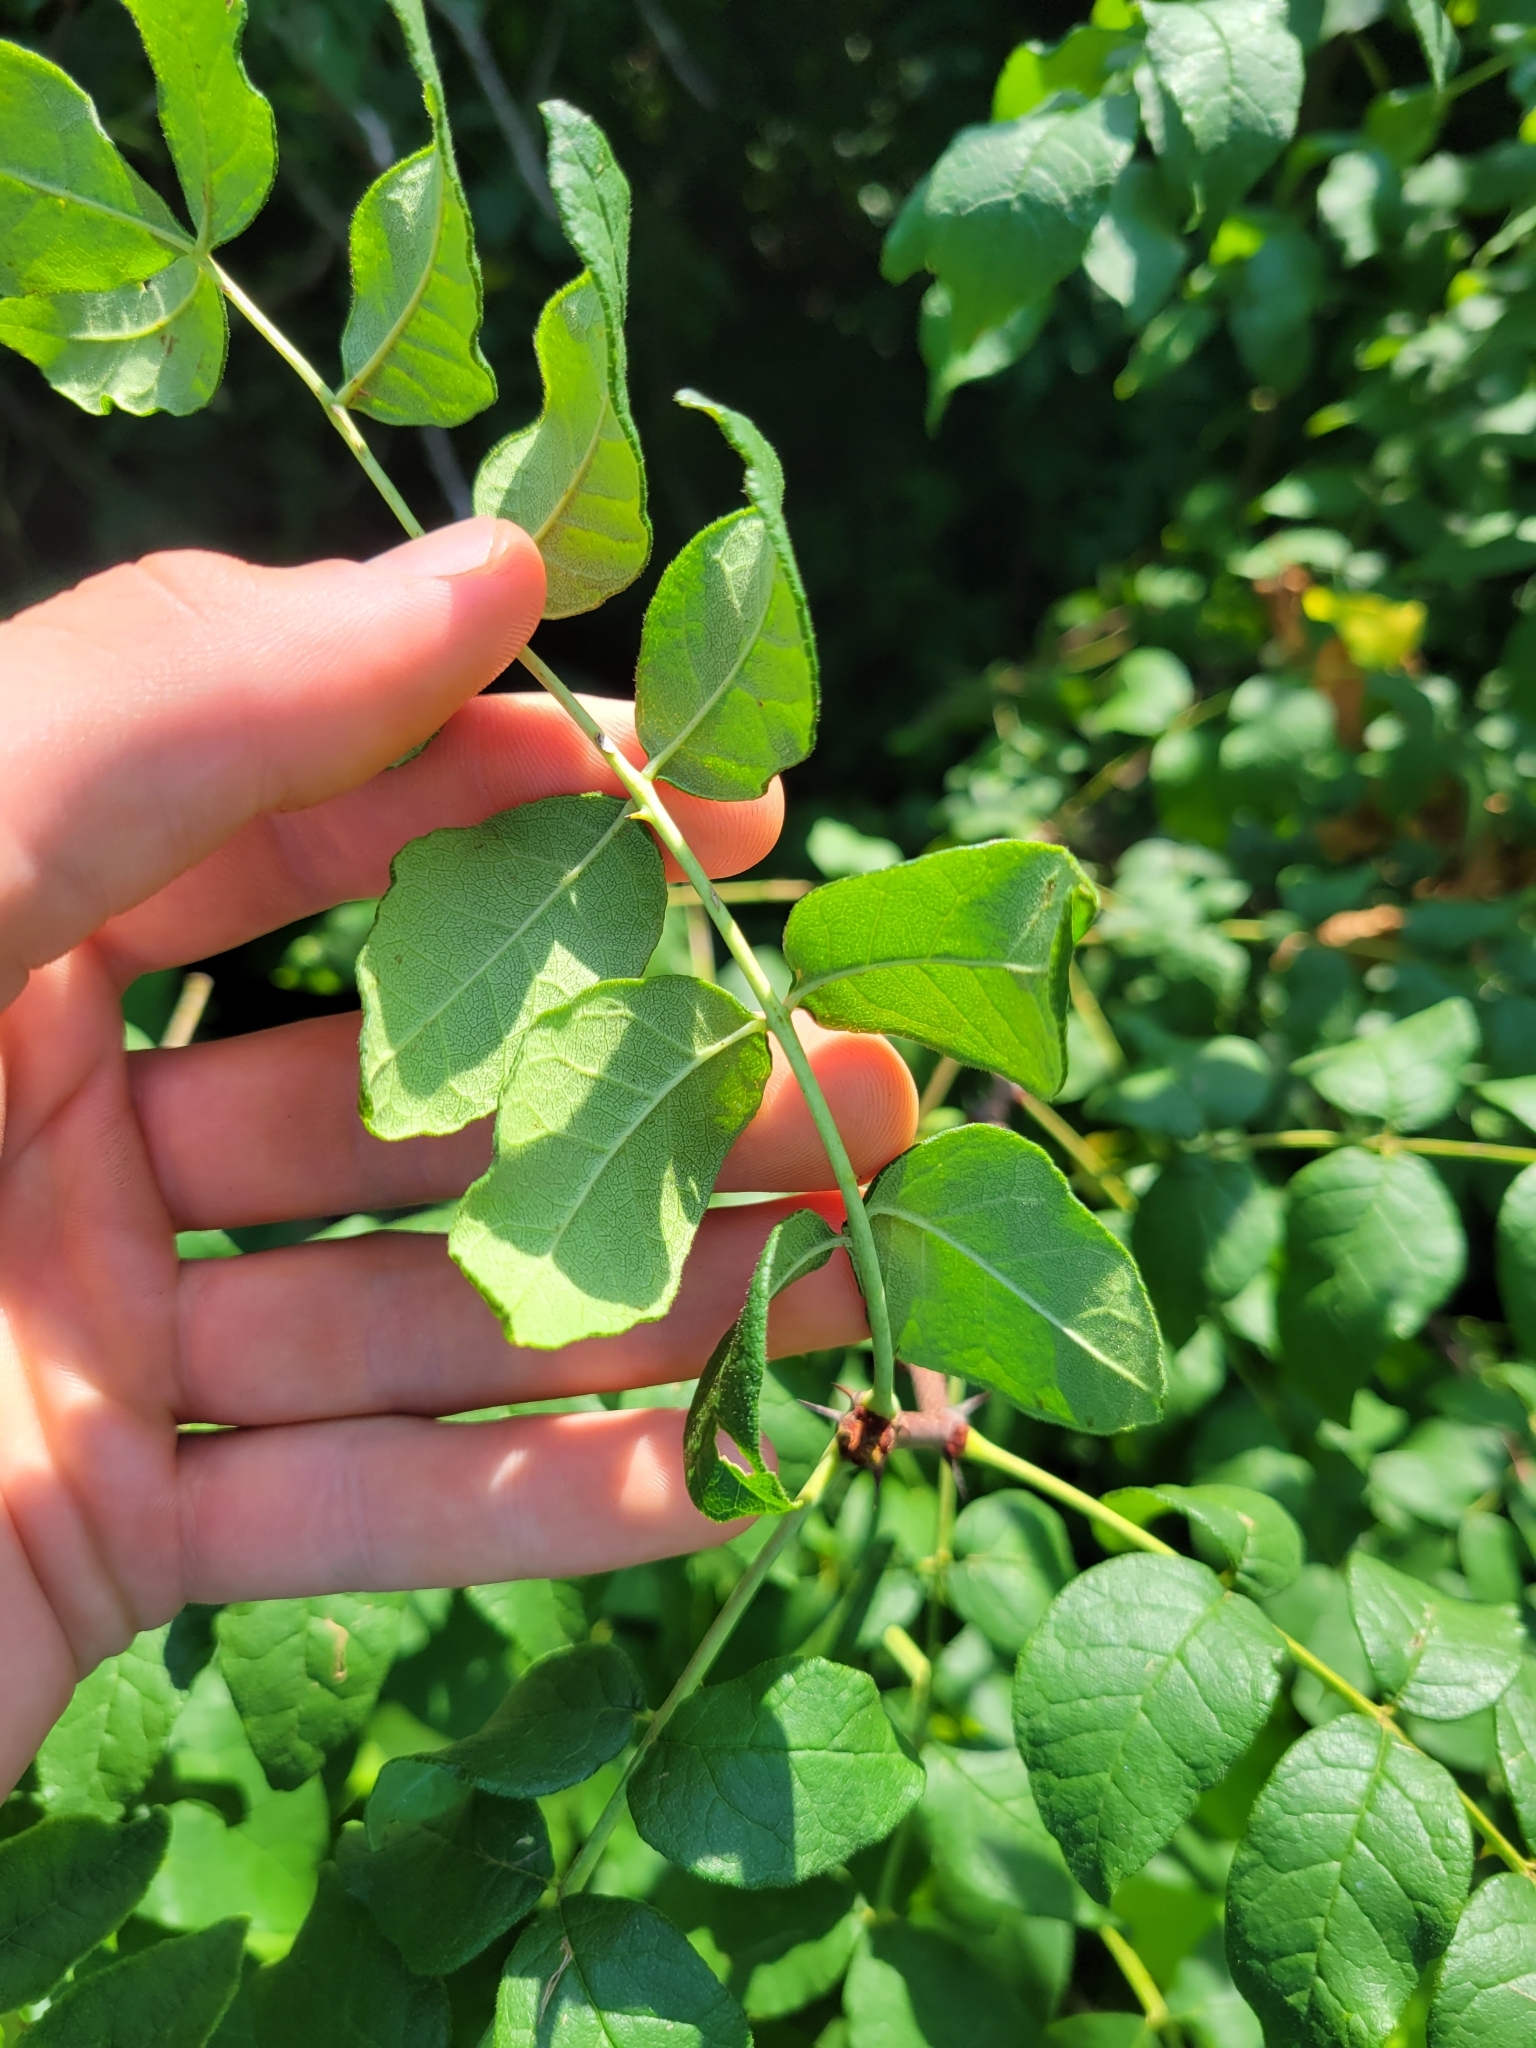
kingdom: Plantae
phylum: Tracheophyta
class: Magnoliopsida
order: Sapindales
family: Rutaceae
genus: Zanthoxylum
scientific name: Zanthoxylum americanum
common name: Northern prickly-ash
